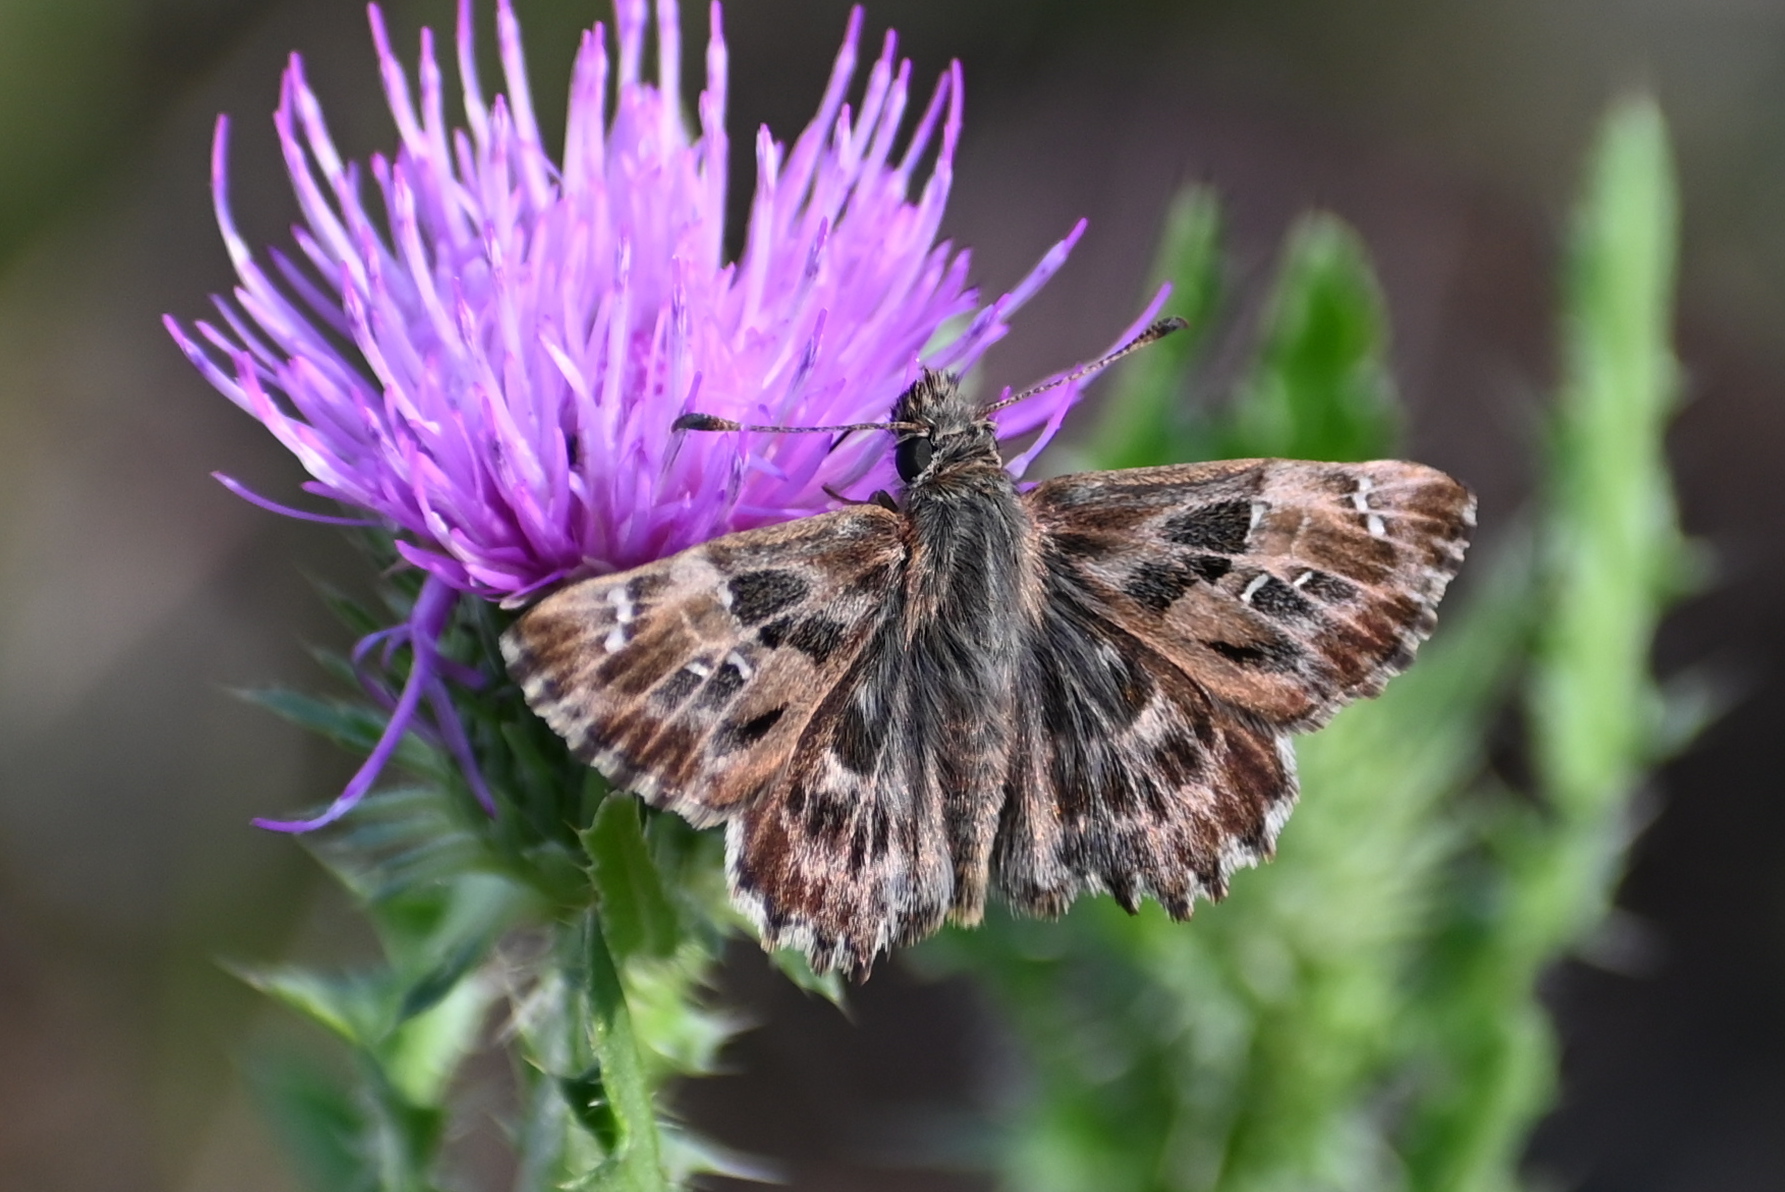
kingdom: Animalia
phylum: Arthropoda
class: Insecta
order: Lepidoptera
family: Hesperiidae
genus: Carcharodus
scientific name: Carcharodus alceae
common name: Mallow skipper
